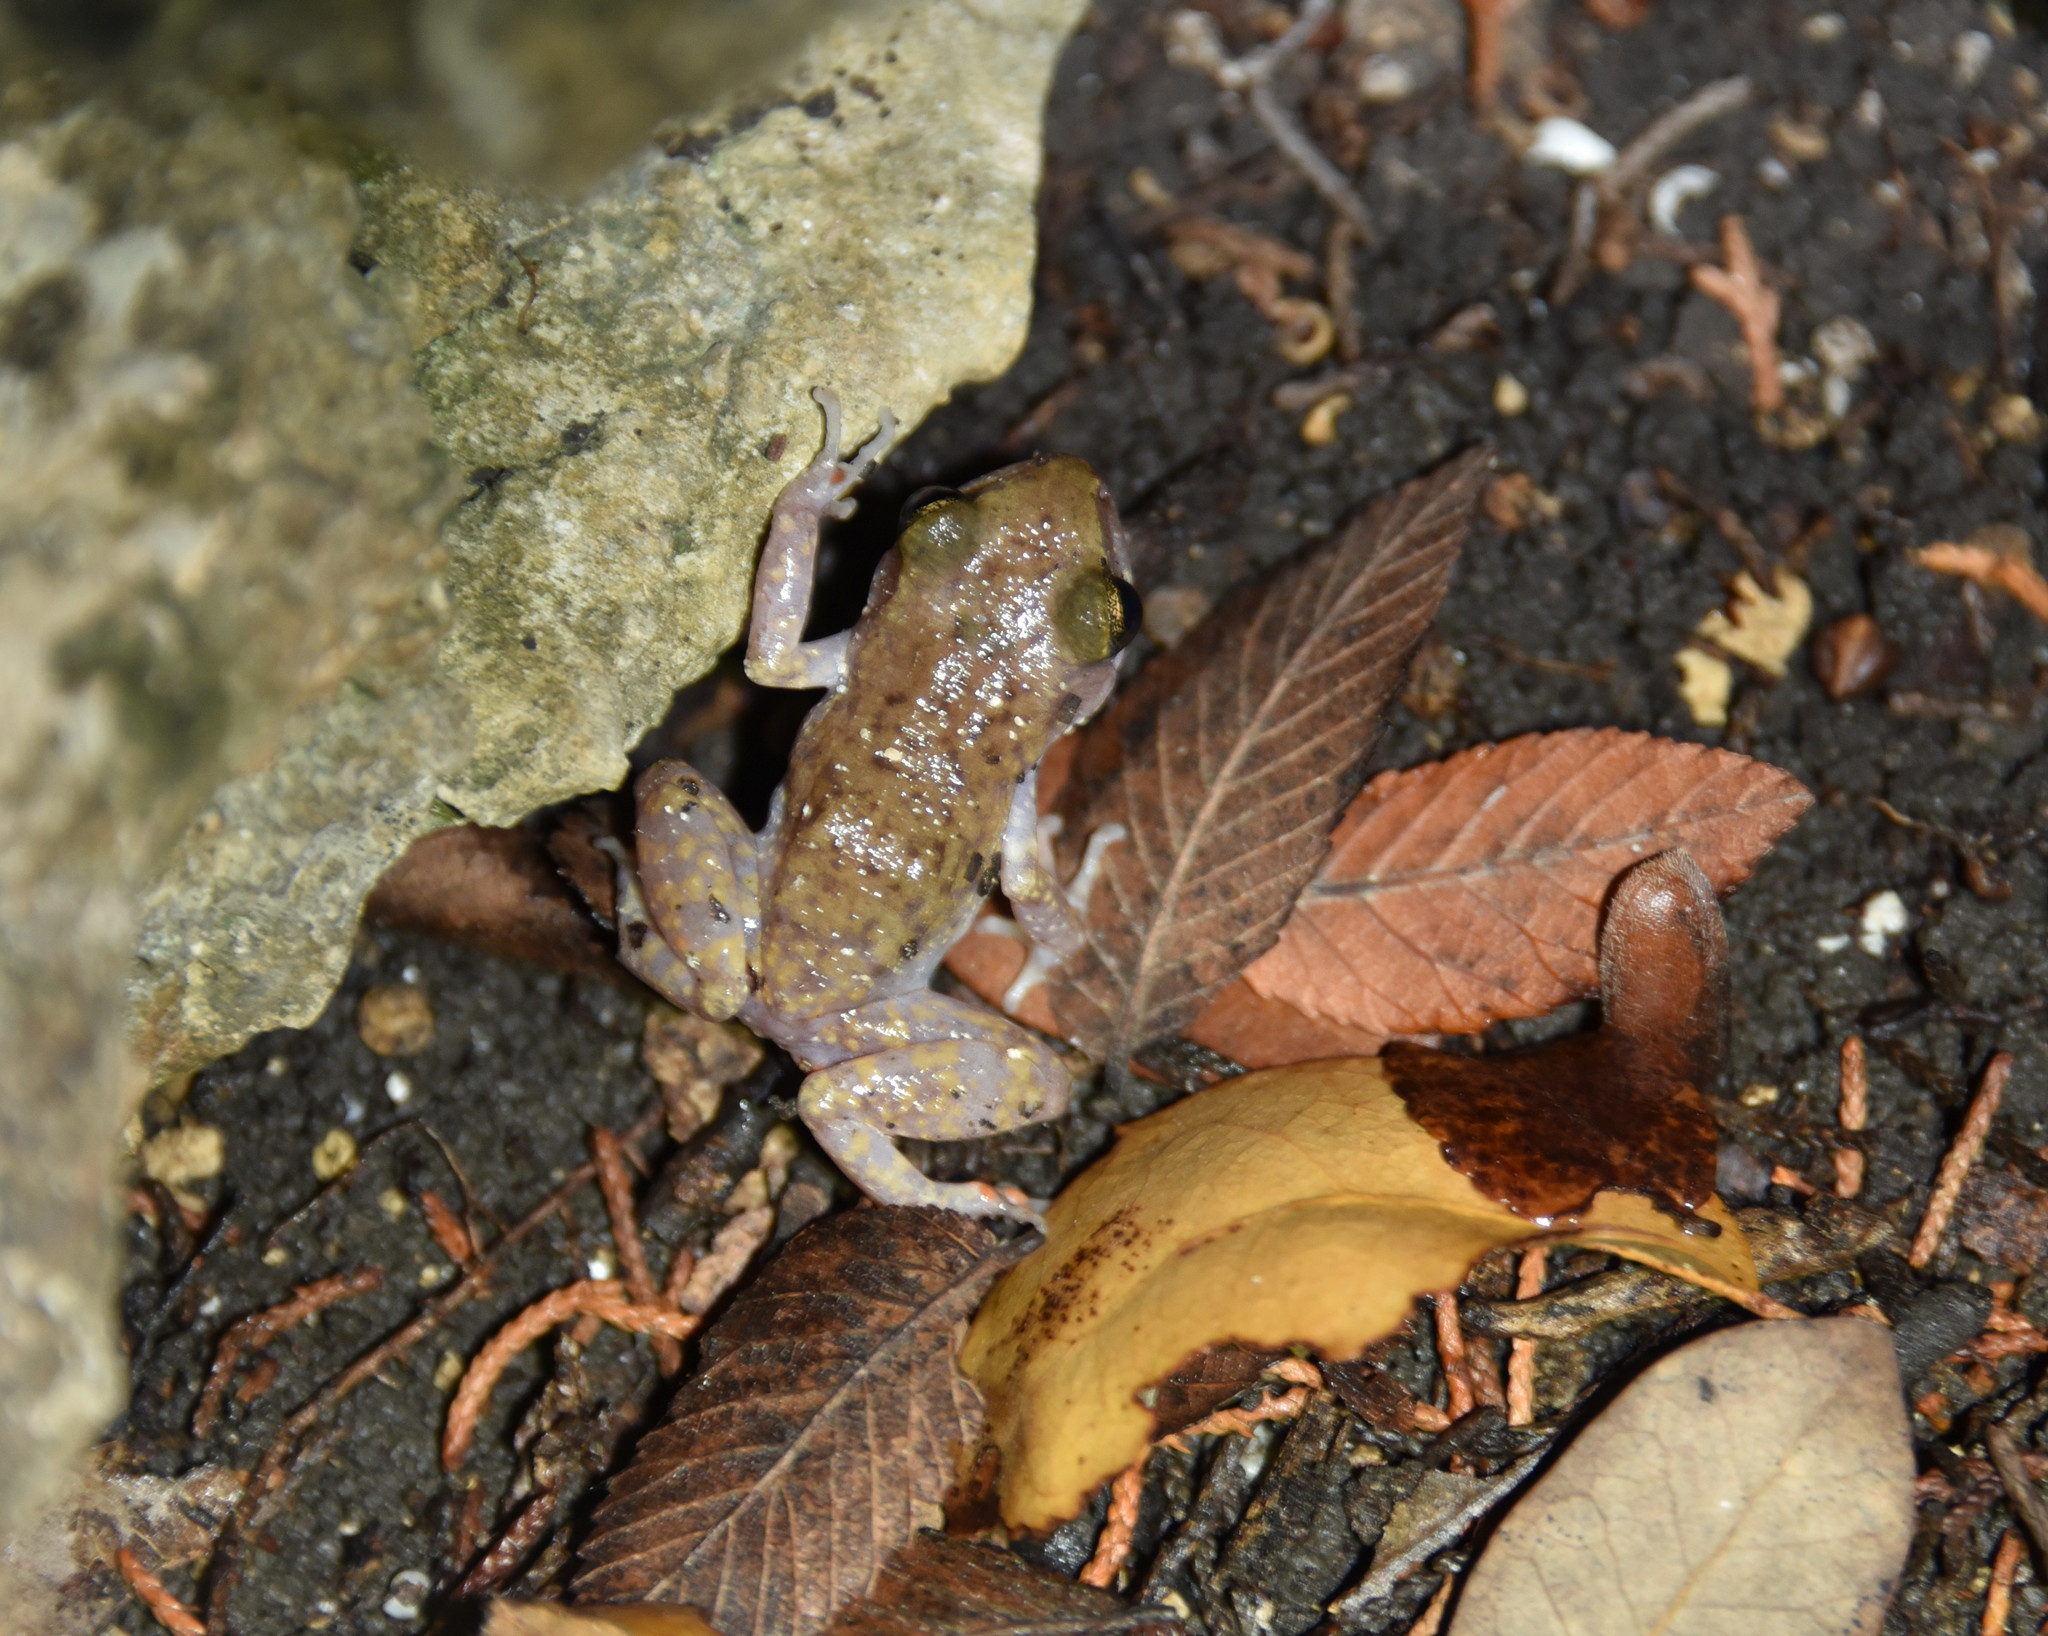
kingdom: Animalia
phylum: Chordata
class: Amphibia
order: Anura
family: Eleutherodactylidae
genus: Eleutherodactylus
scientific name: Eleutherodactylus marnockii
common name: Cliff chirping frog
